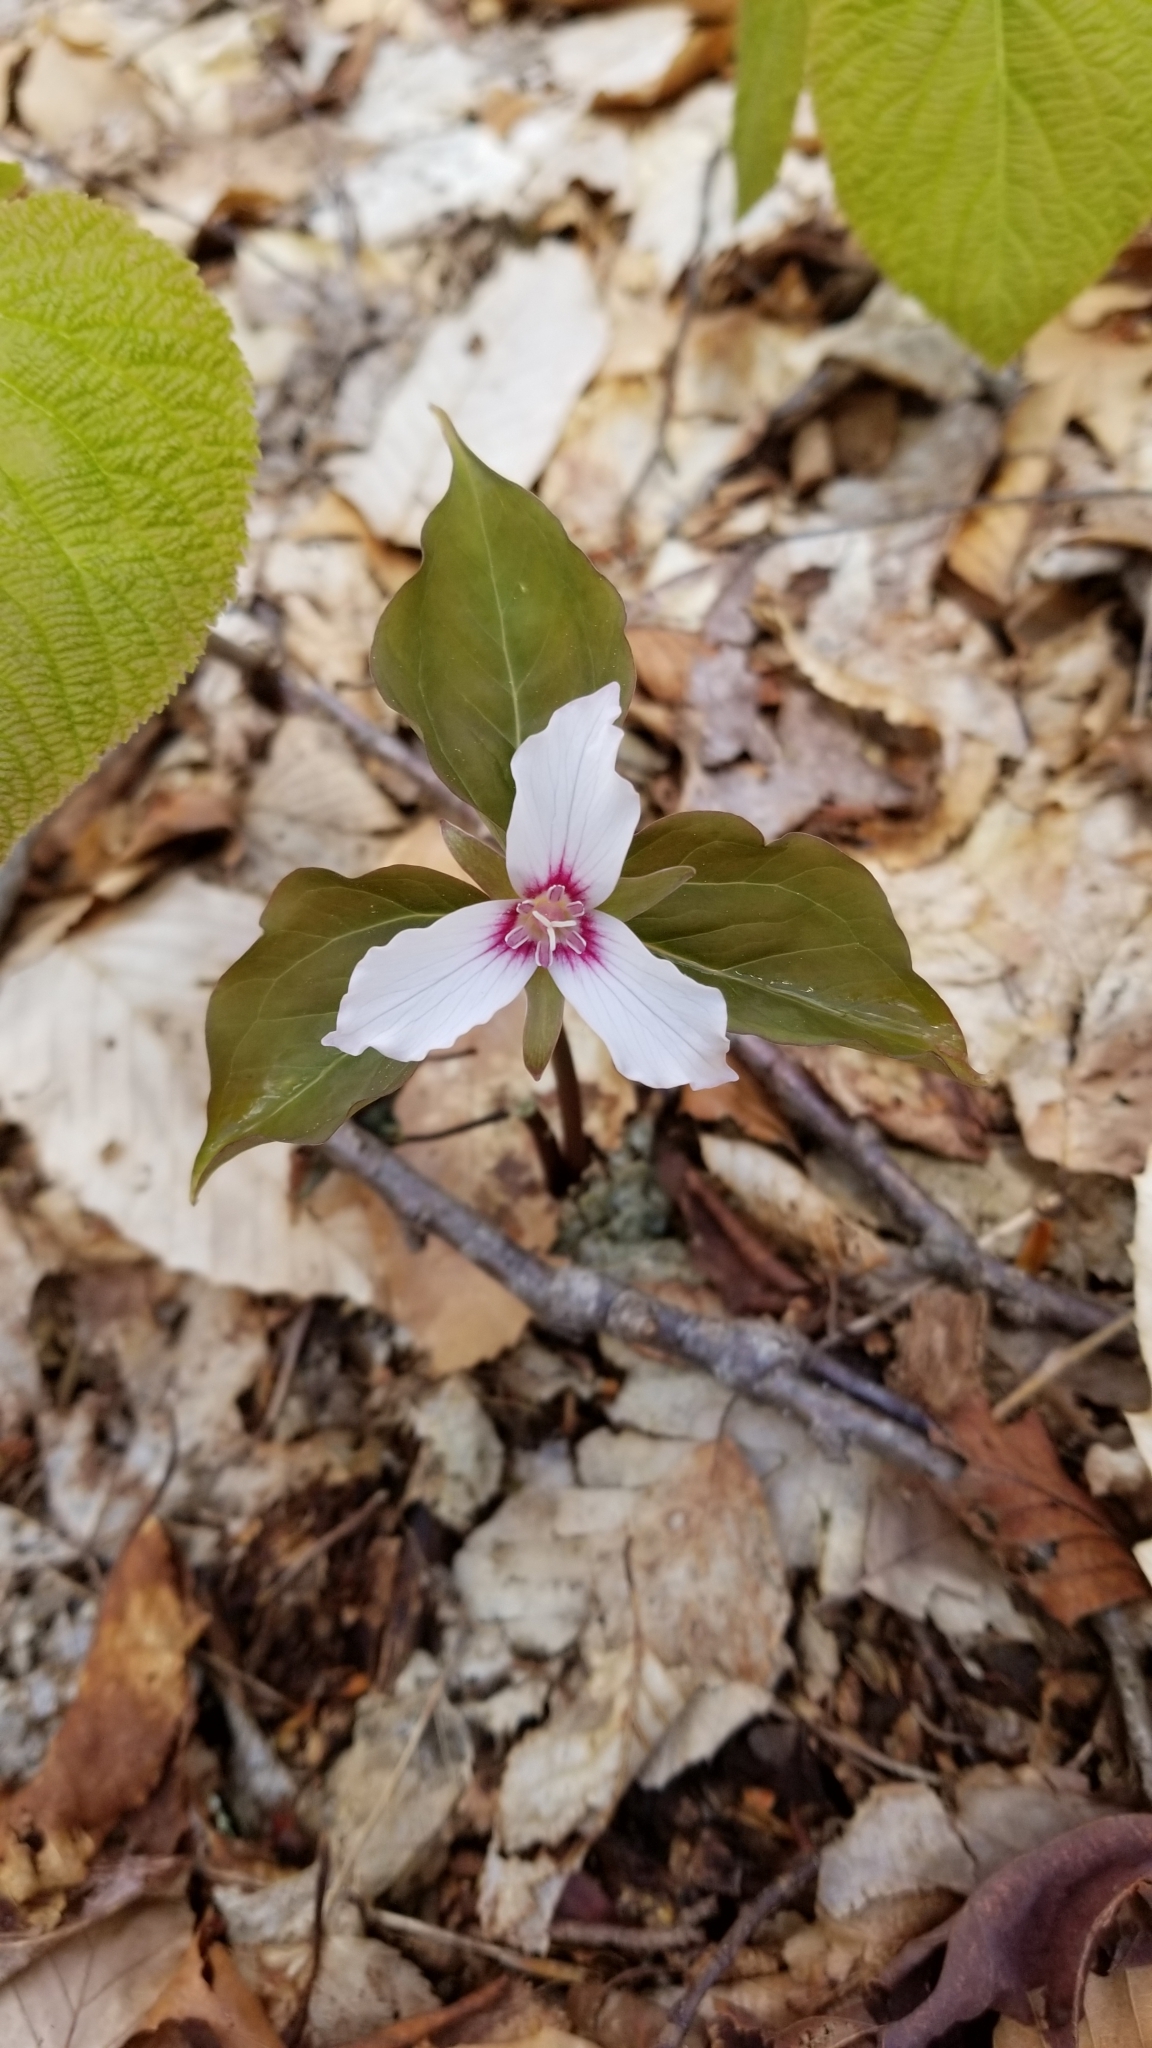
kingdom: Plantae
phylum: Tracheophyta
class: Liliopsida
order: Liliales
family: Melanthiaceae
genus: Trillium
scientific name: Trillium undulatum
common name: Paint trillium
